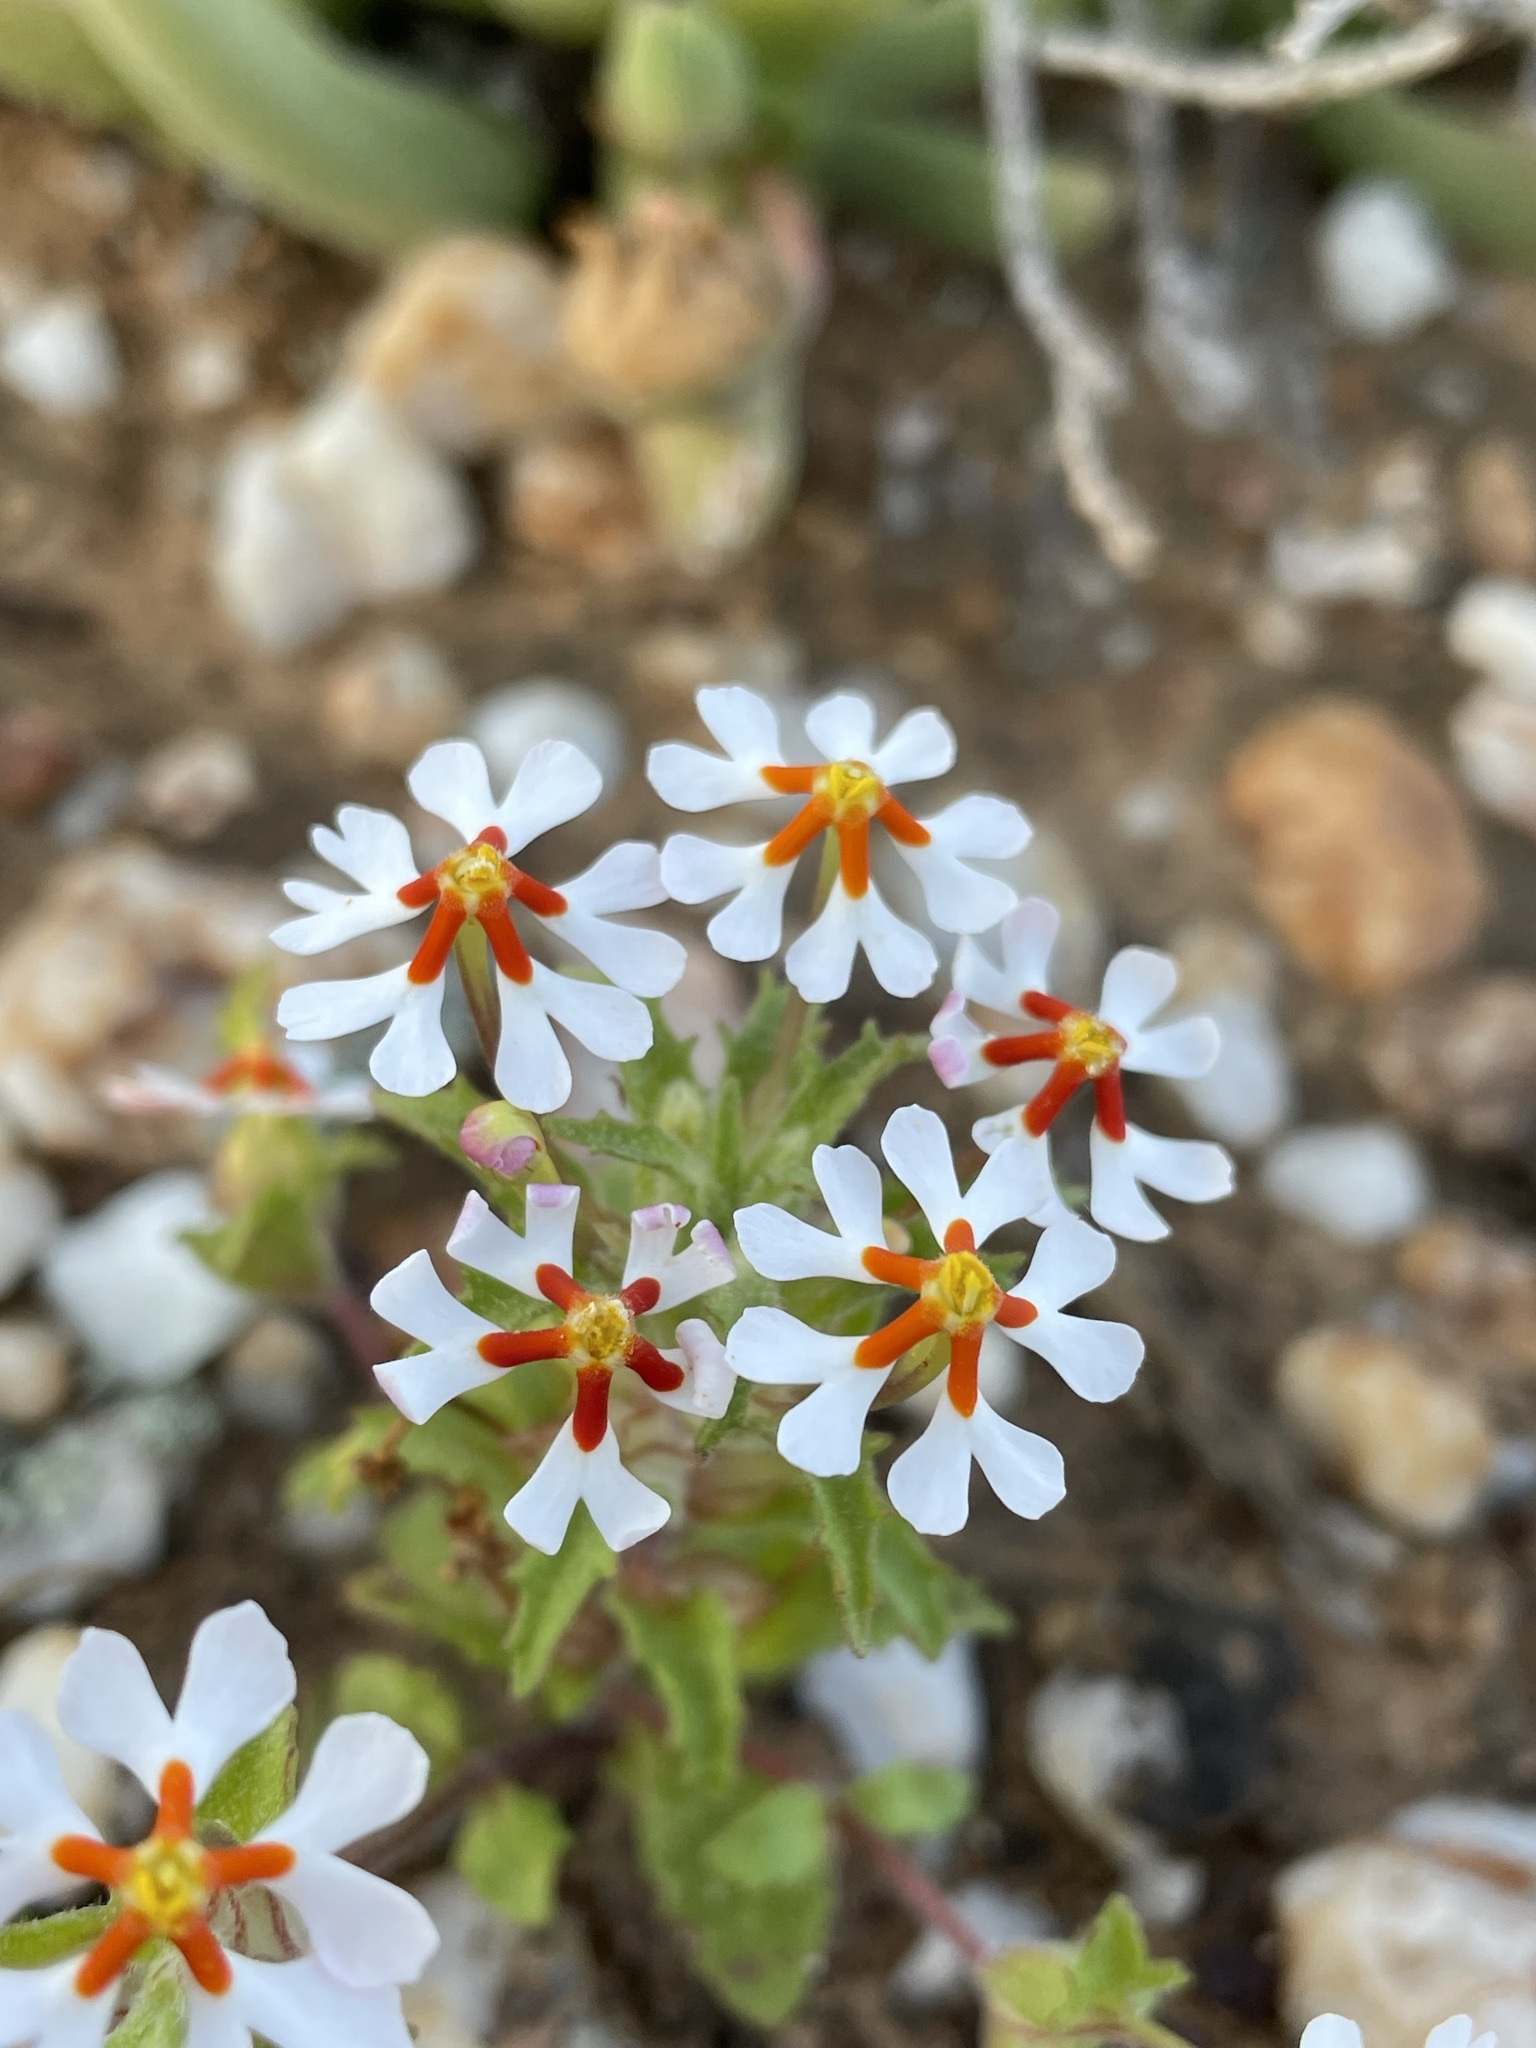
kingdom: Plantae
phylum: Tracheophyta
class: Magnoliopsida
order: Lamiales
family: Scrophulariaceae
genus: Zaluzianskya
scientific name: Zaluzianskya pumila
